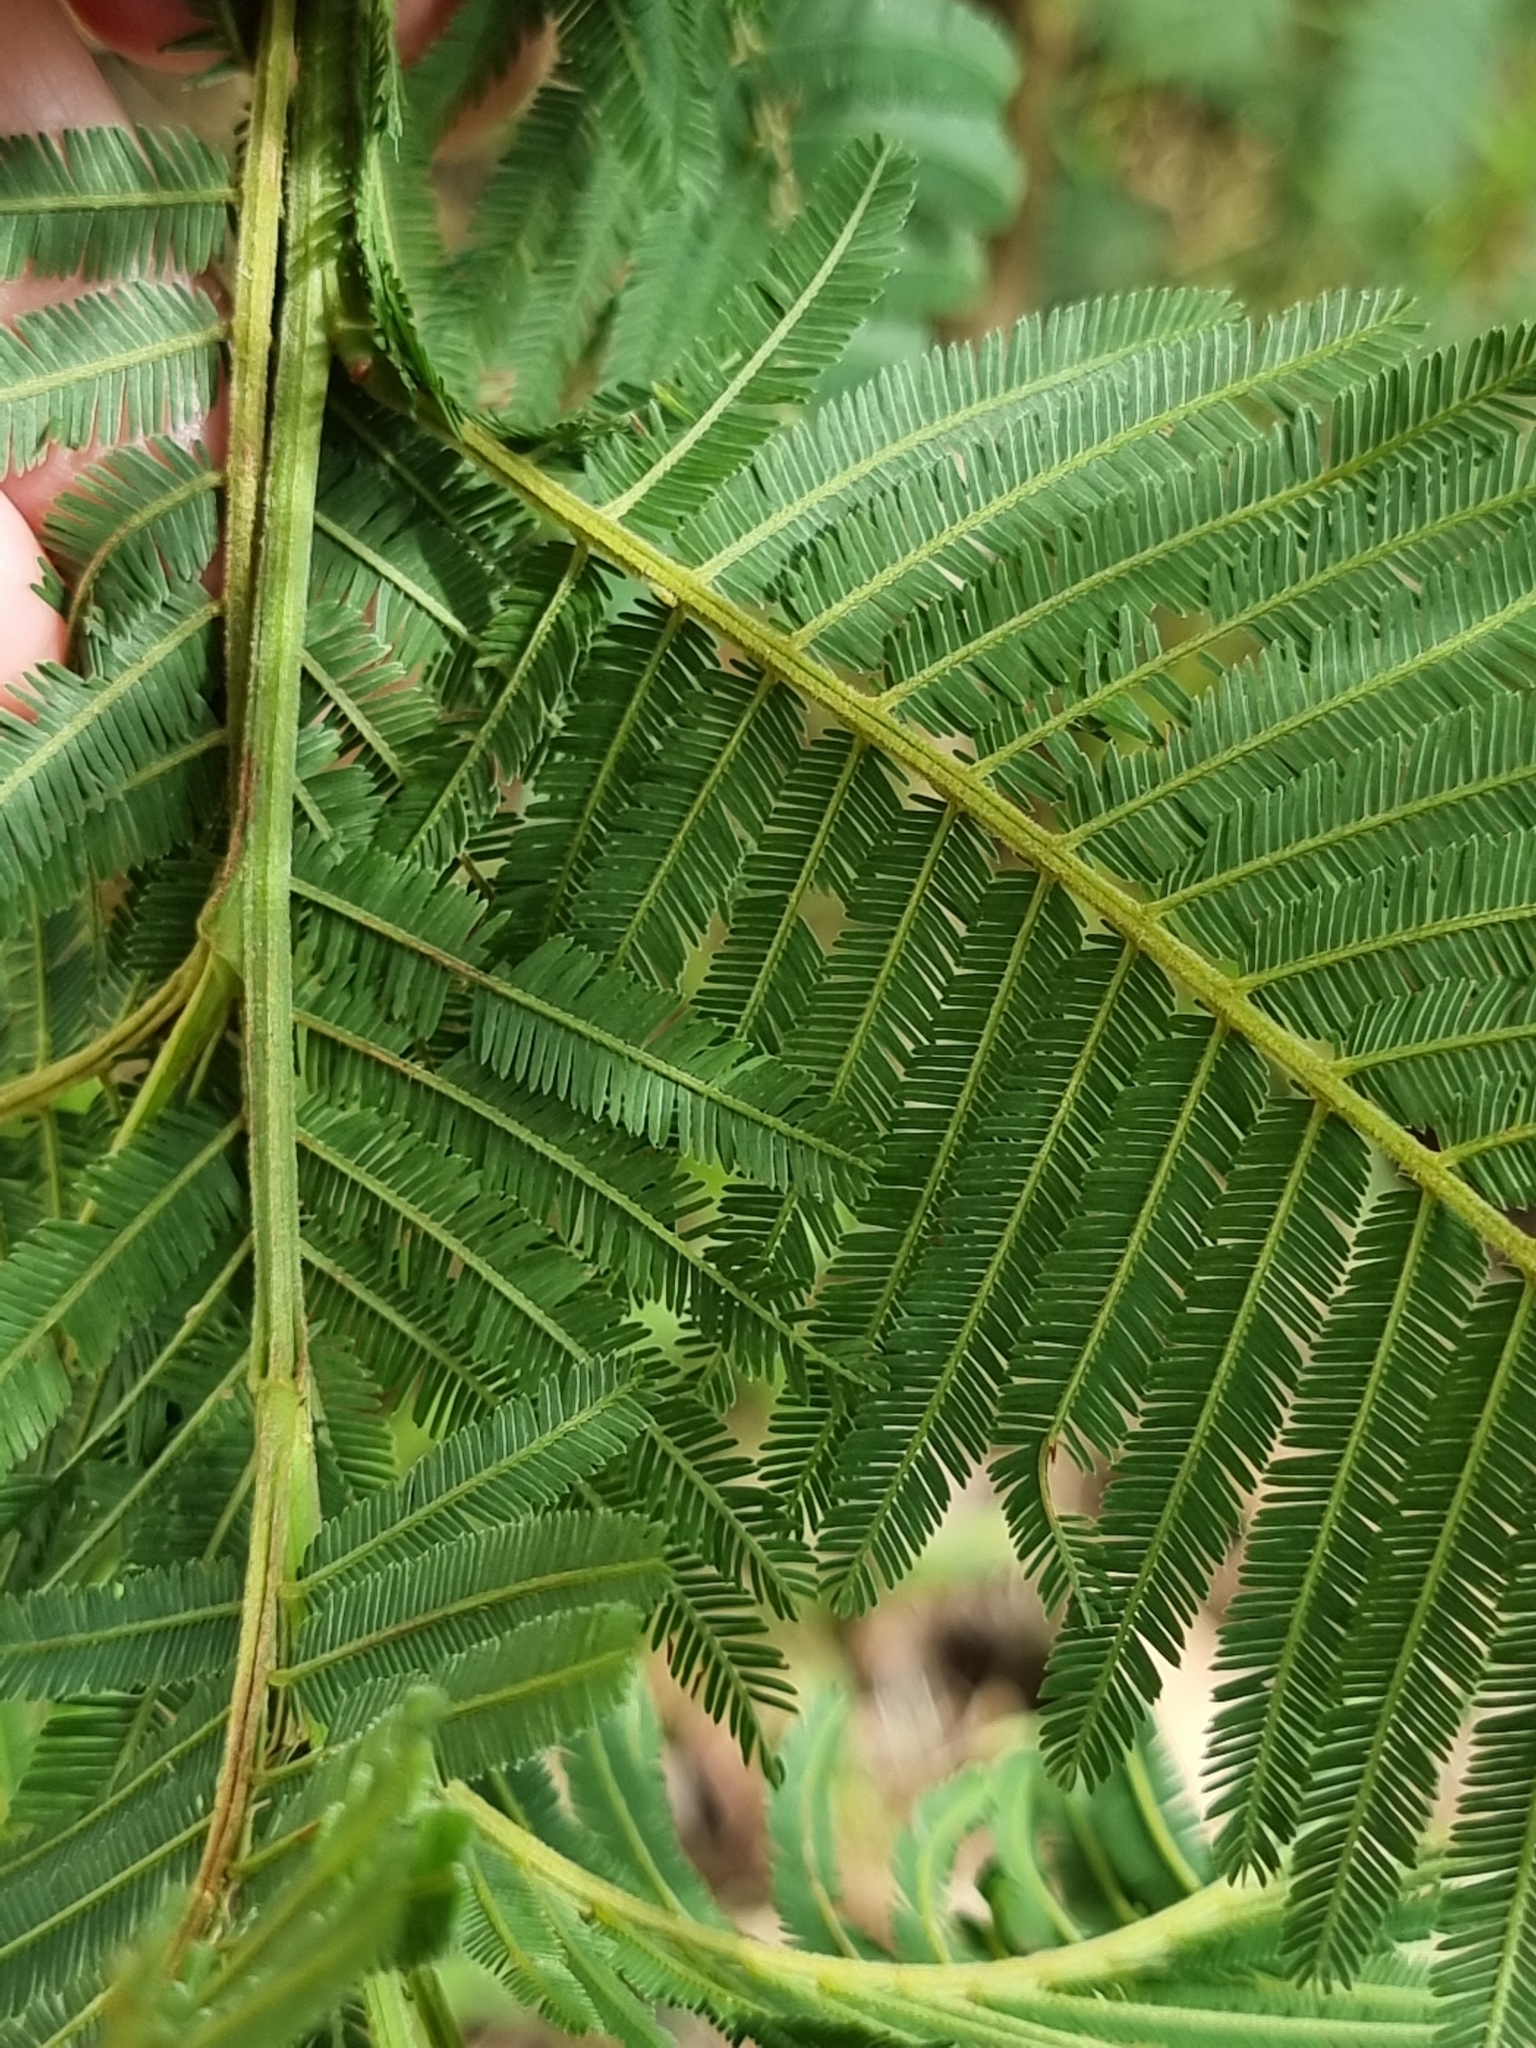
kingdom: Plantae
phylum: Tracheophyta
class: Magnoliopsida
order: Fabales
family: Fabaceae
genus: Acacia
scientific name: Acacia irrorata
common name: Green wattle
